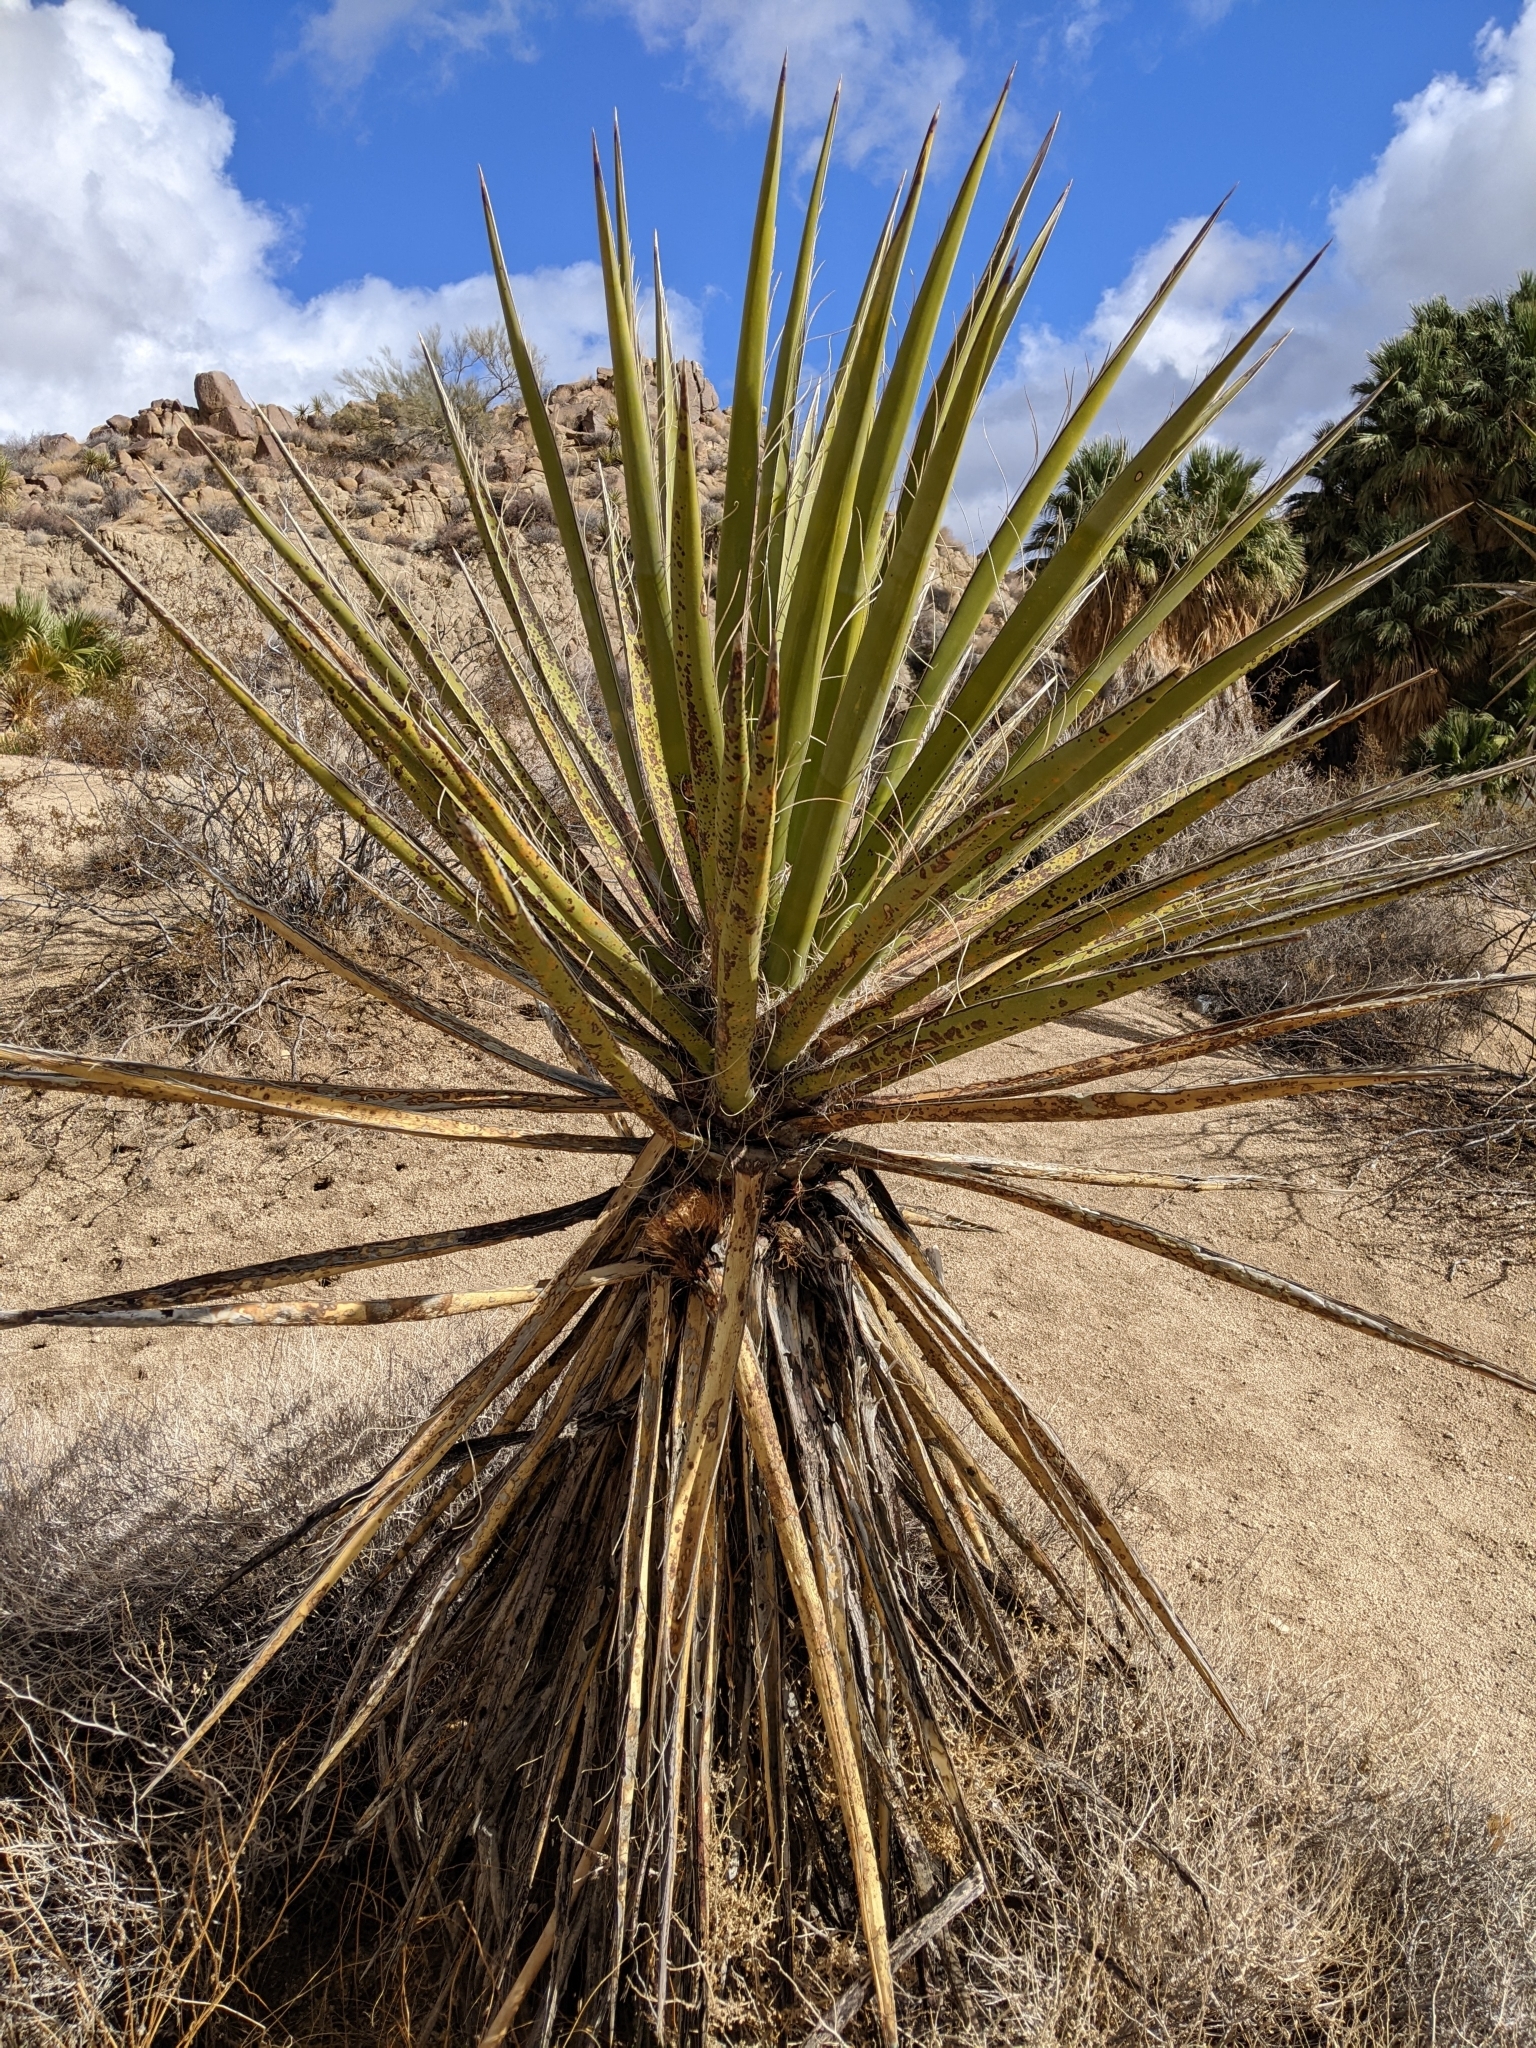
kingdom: Plantae
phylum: Tracheophyta
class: Liliopsida
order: Asparagales
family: Asparagaceae
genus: Yucca
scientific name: Yucca schidigera
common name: Mojave yucca
